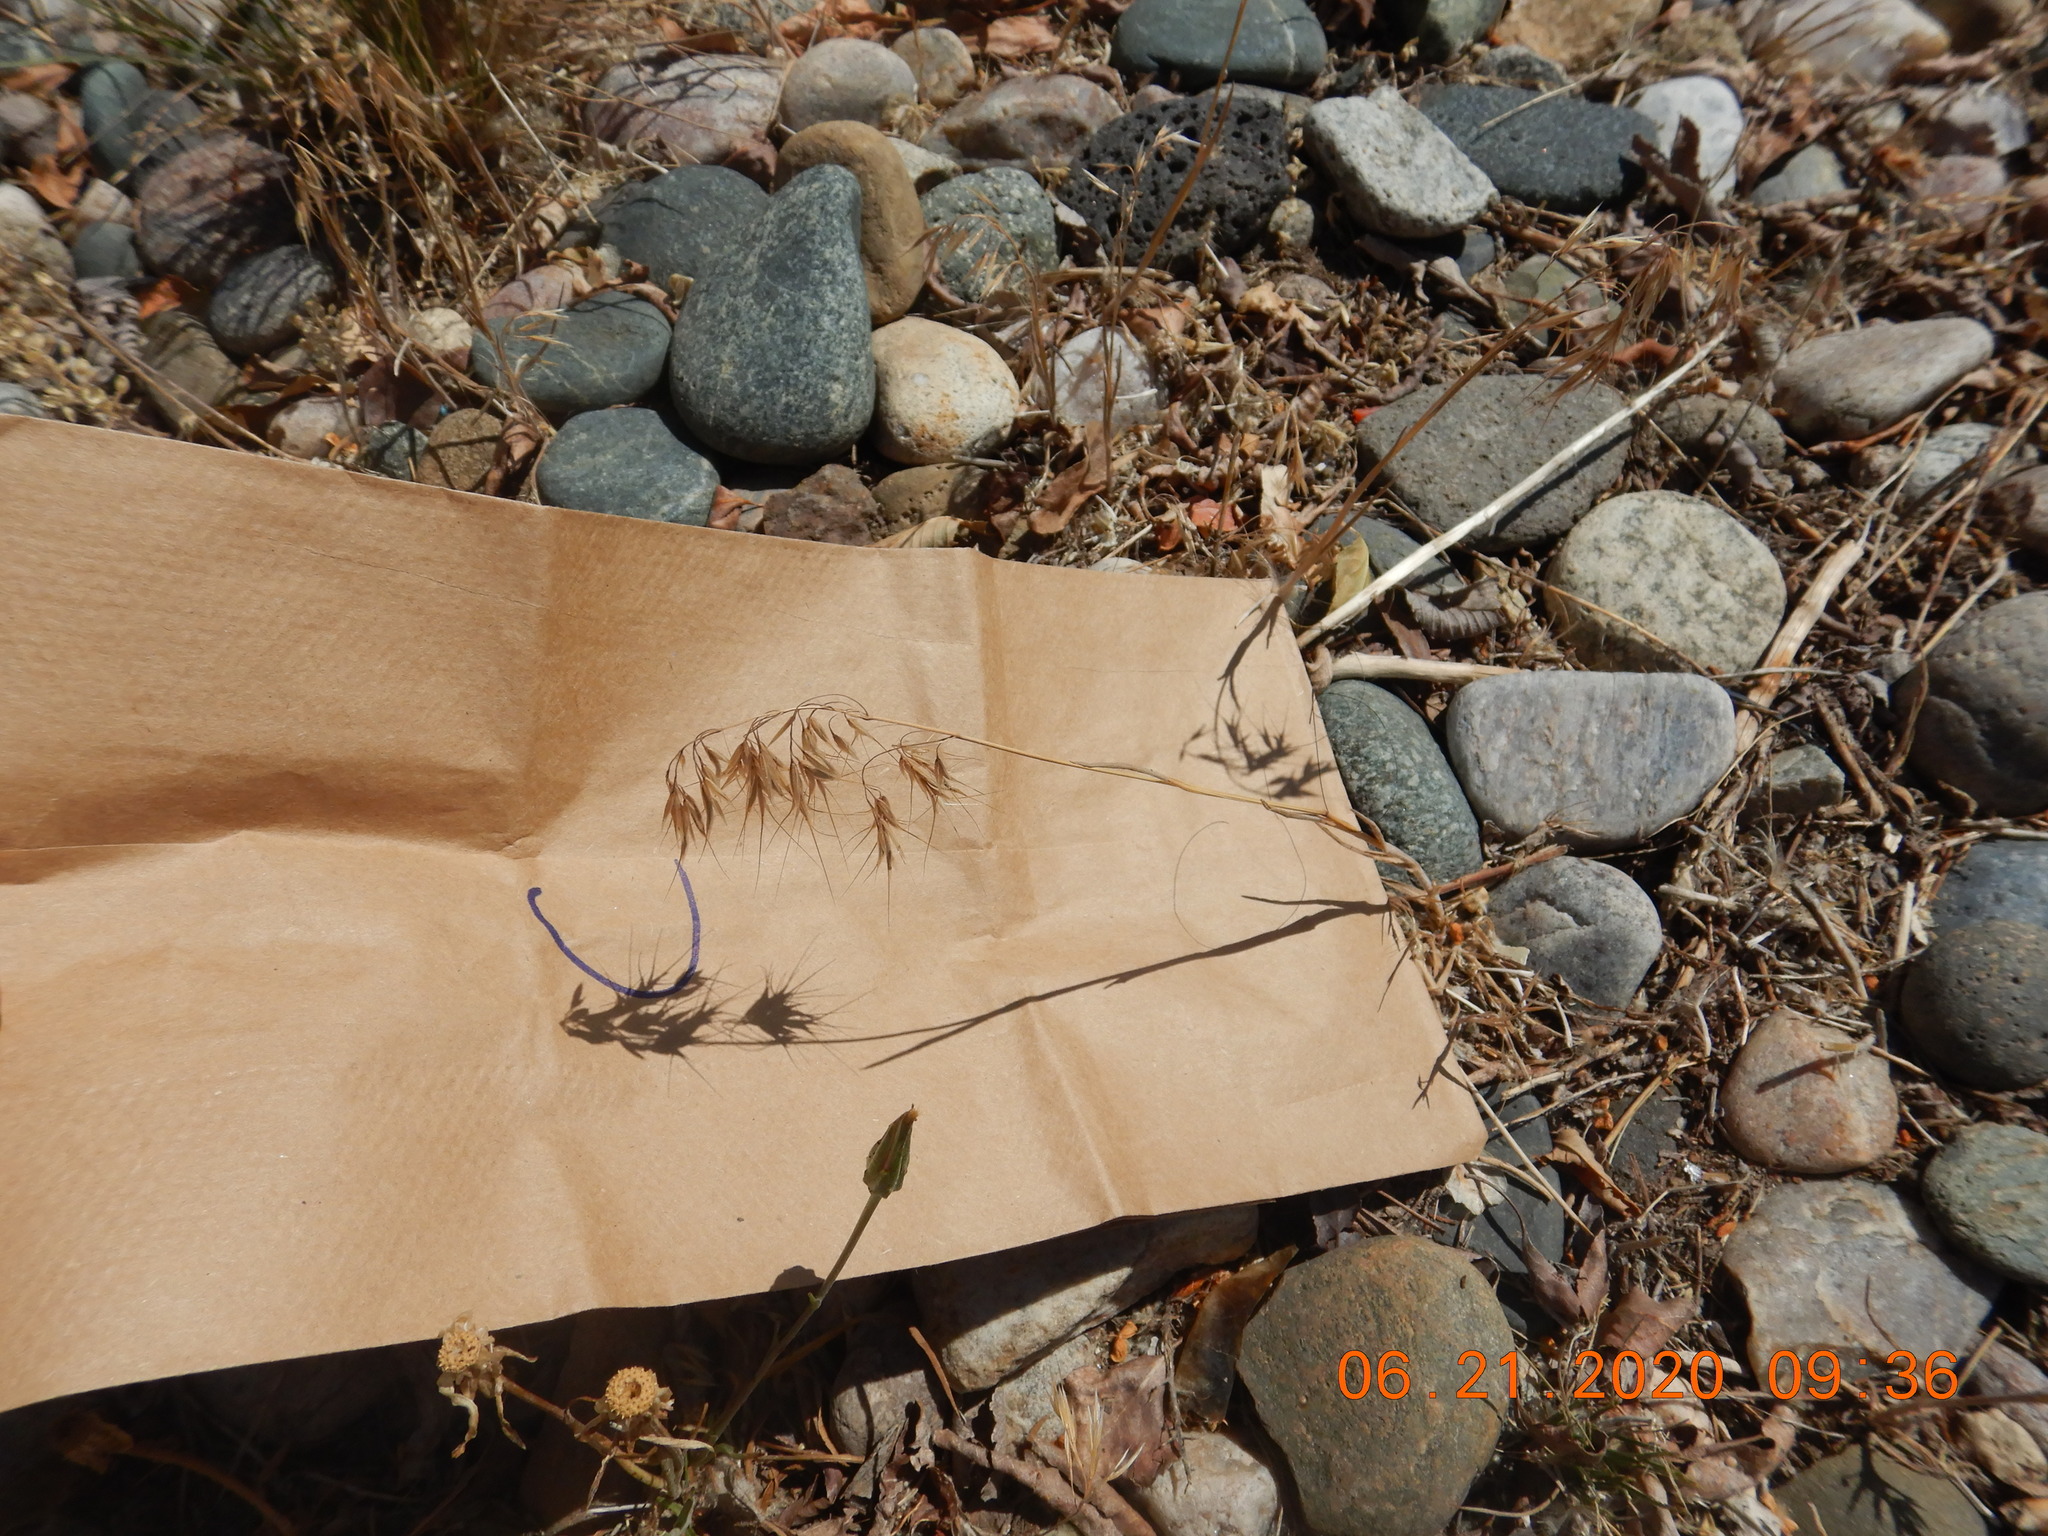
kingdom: Plantae
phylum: Tracheophyta
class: Liliopsida
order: Poales
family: Poaceae
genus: Bromus
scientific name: Bromus tectorum
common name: Cheatgrass
